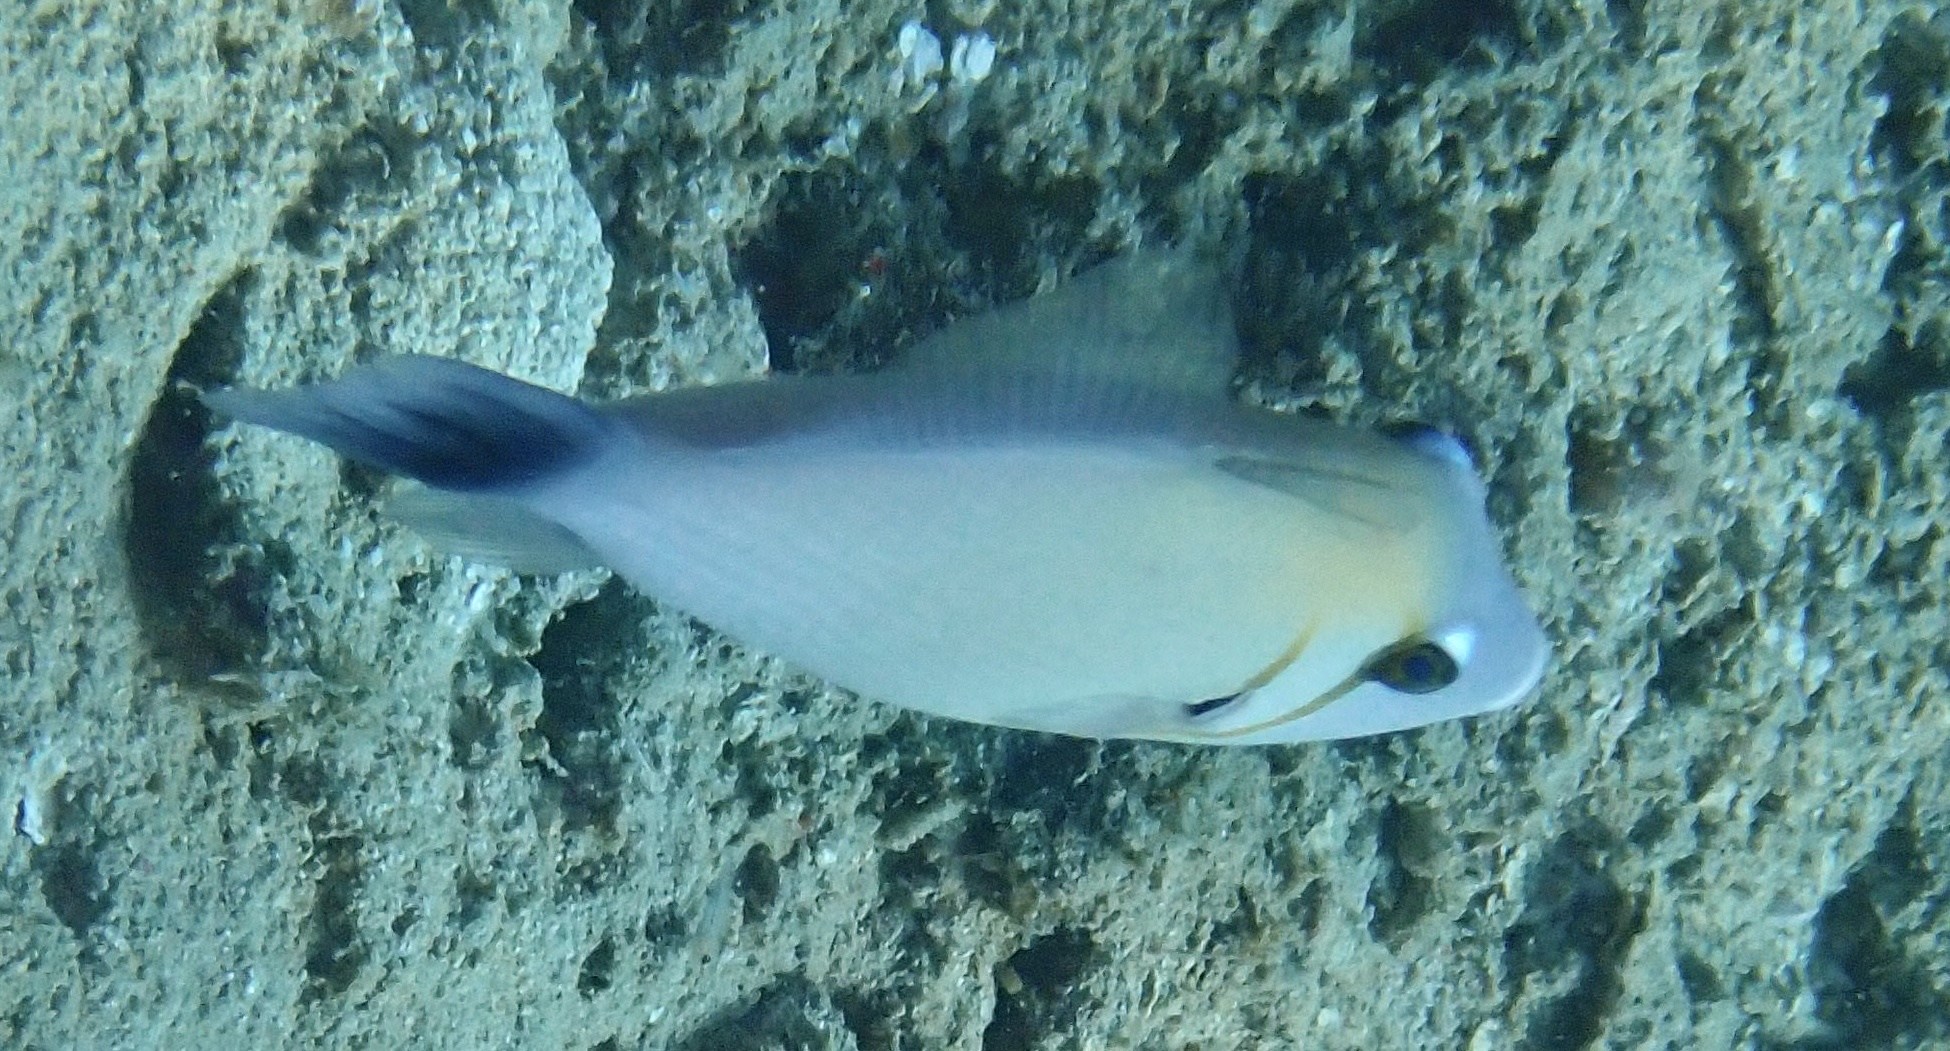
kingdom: Animalia
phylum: Chordata
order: Tetraodontiformes
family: Balistidae
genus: Sufflamen
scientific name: Sufflamen bursa
